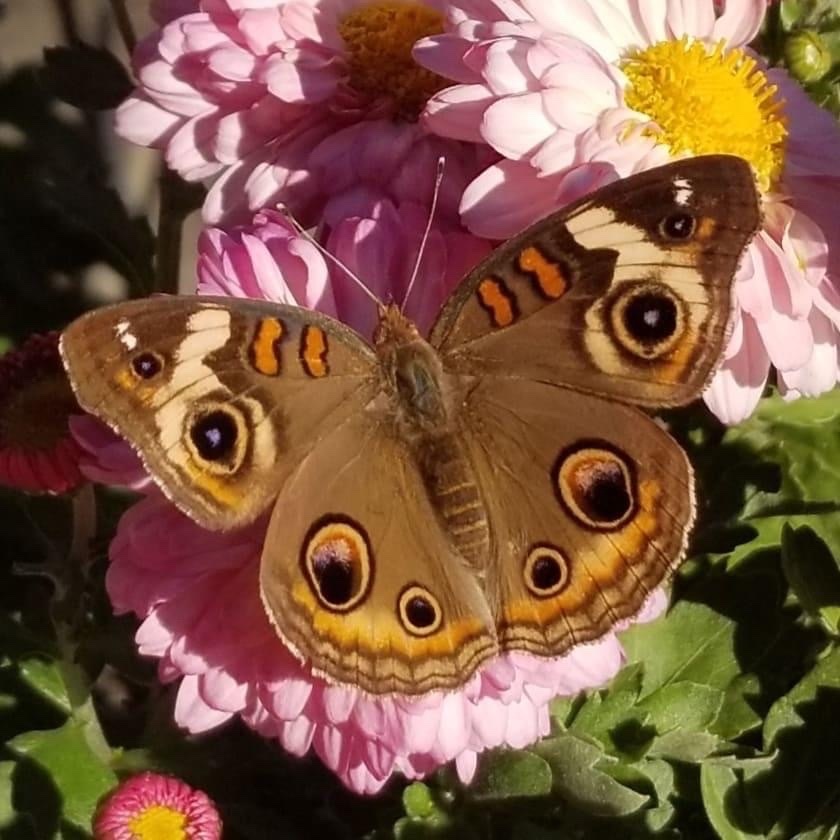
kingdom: Animalia
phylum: Arthropoda
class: Insecta
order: Lepidoptera
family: Nymphalidae
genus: Junonia
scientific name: Junonia coenia
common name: Common buckeye
